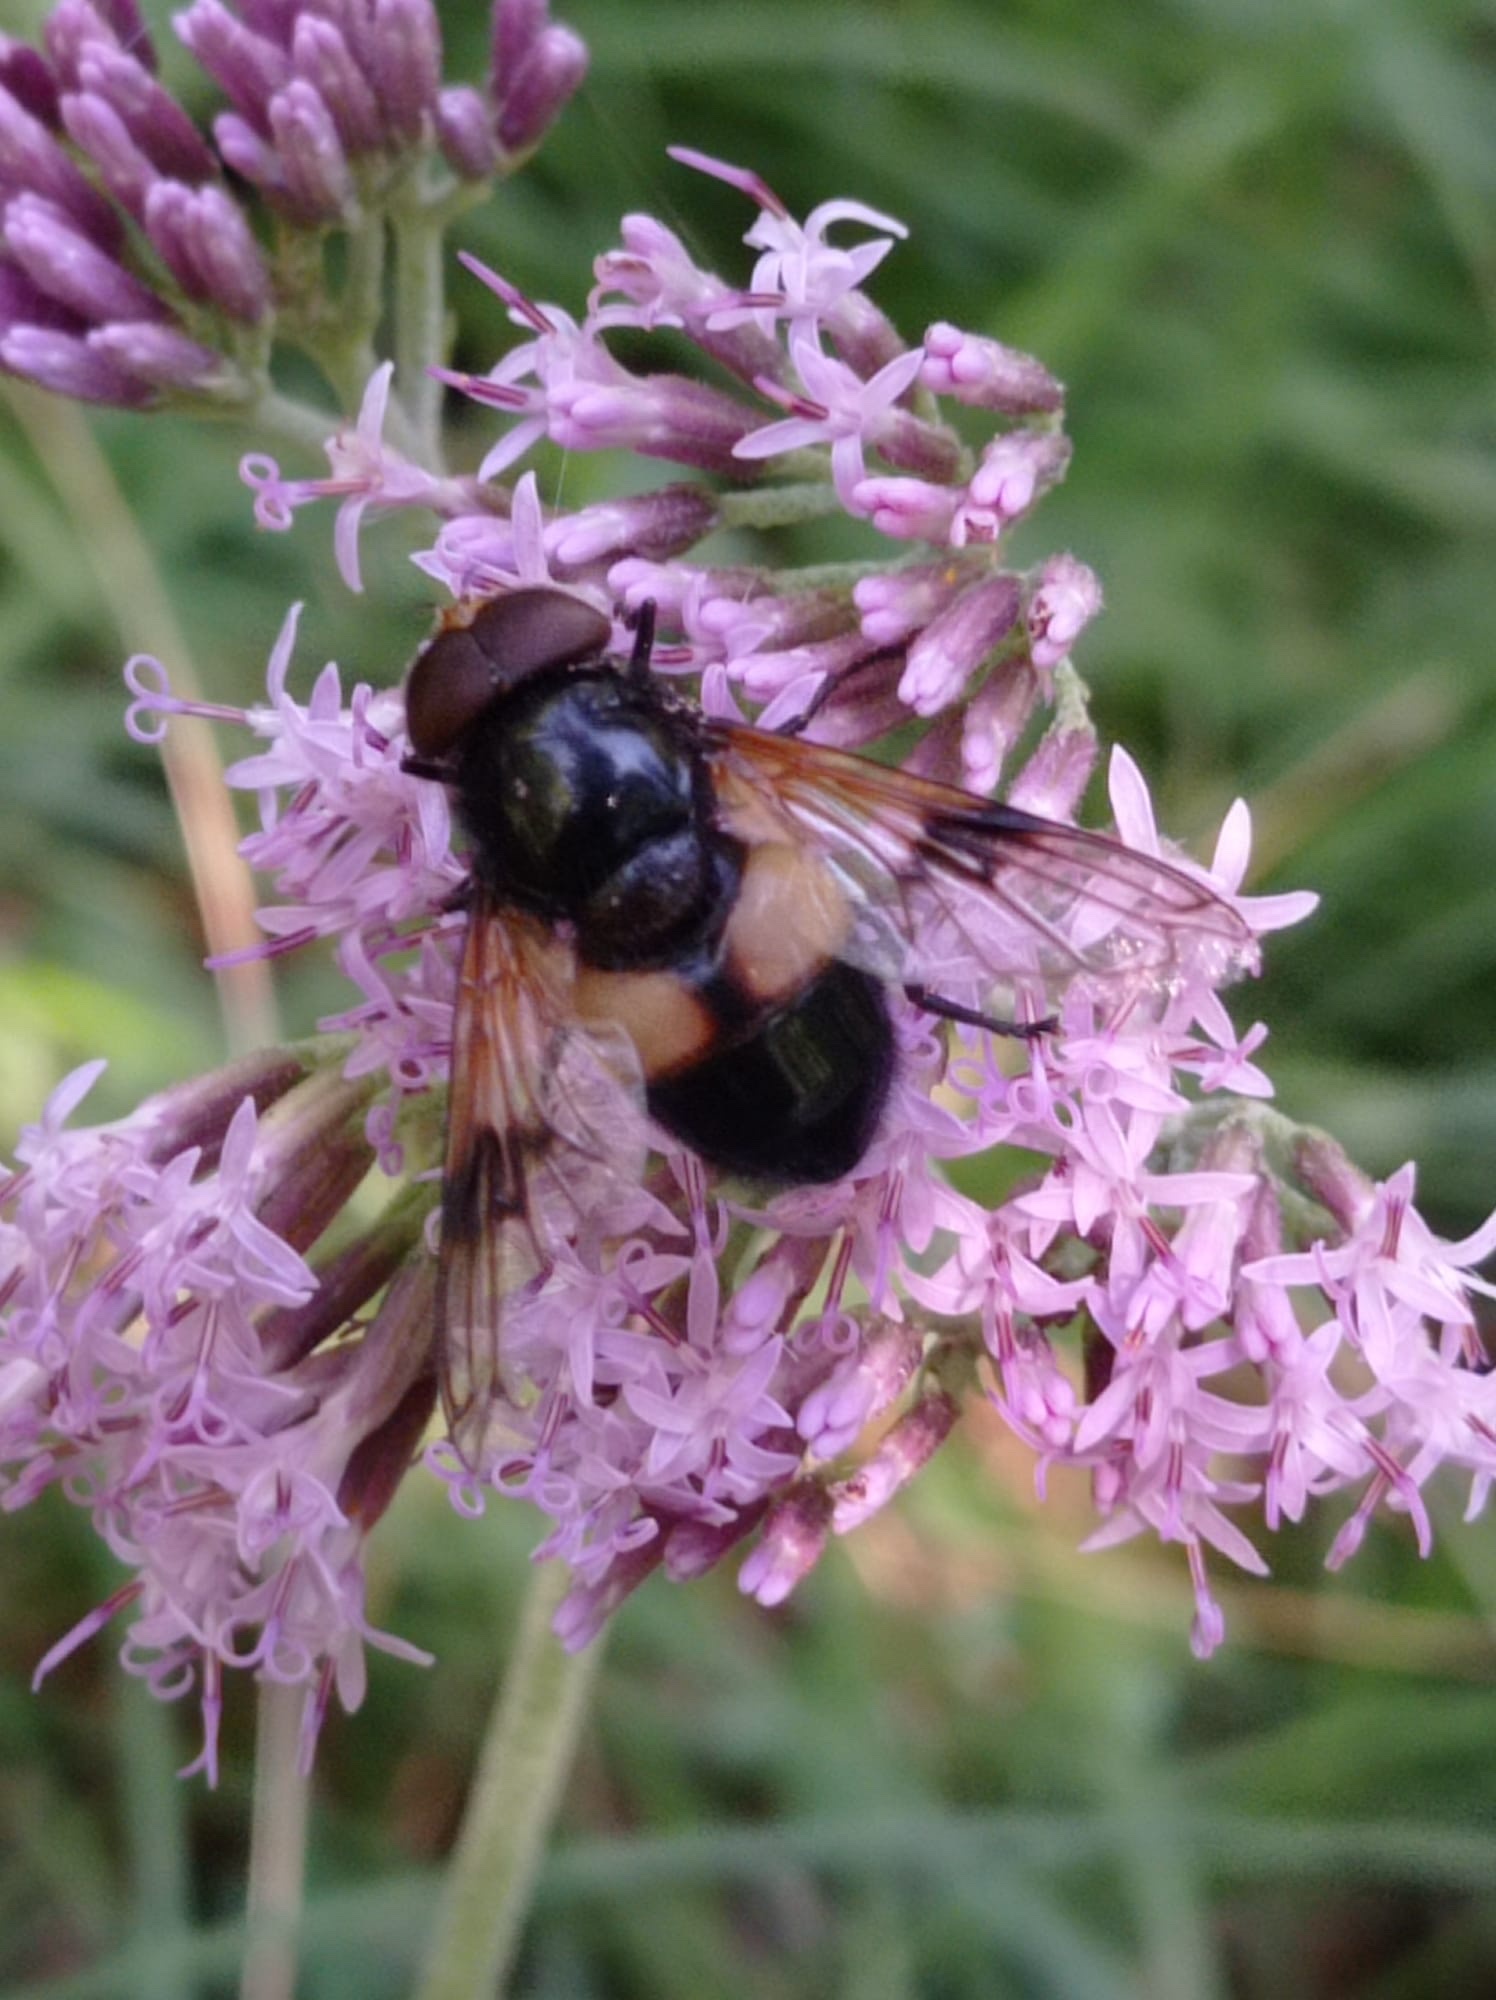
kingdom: Animalia
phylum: Arthropoda
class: Insecta
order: Diptera
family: Syrphidae
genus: Volucella
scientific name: Volucella pellucens
